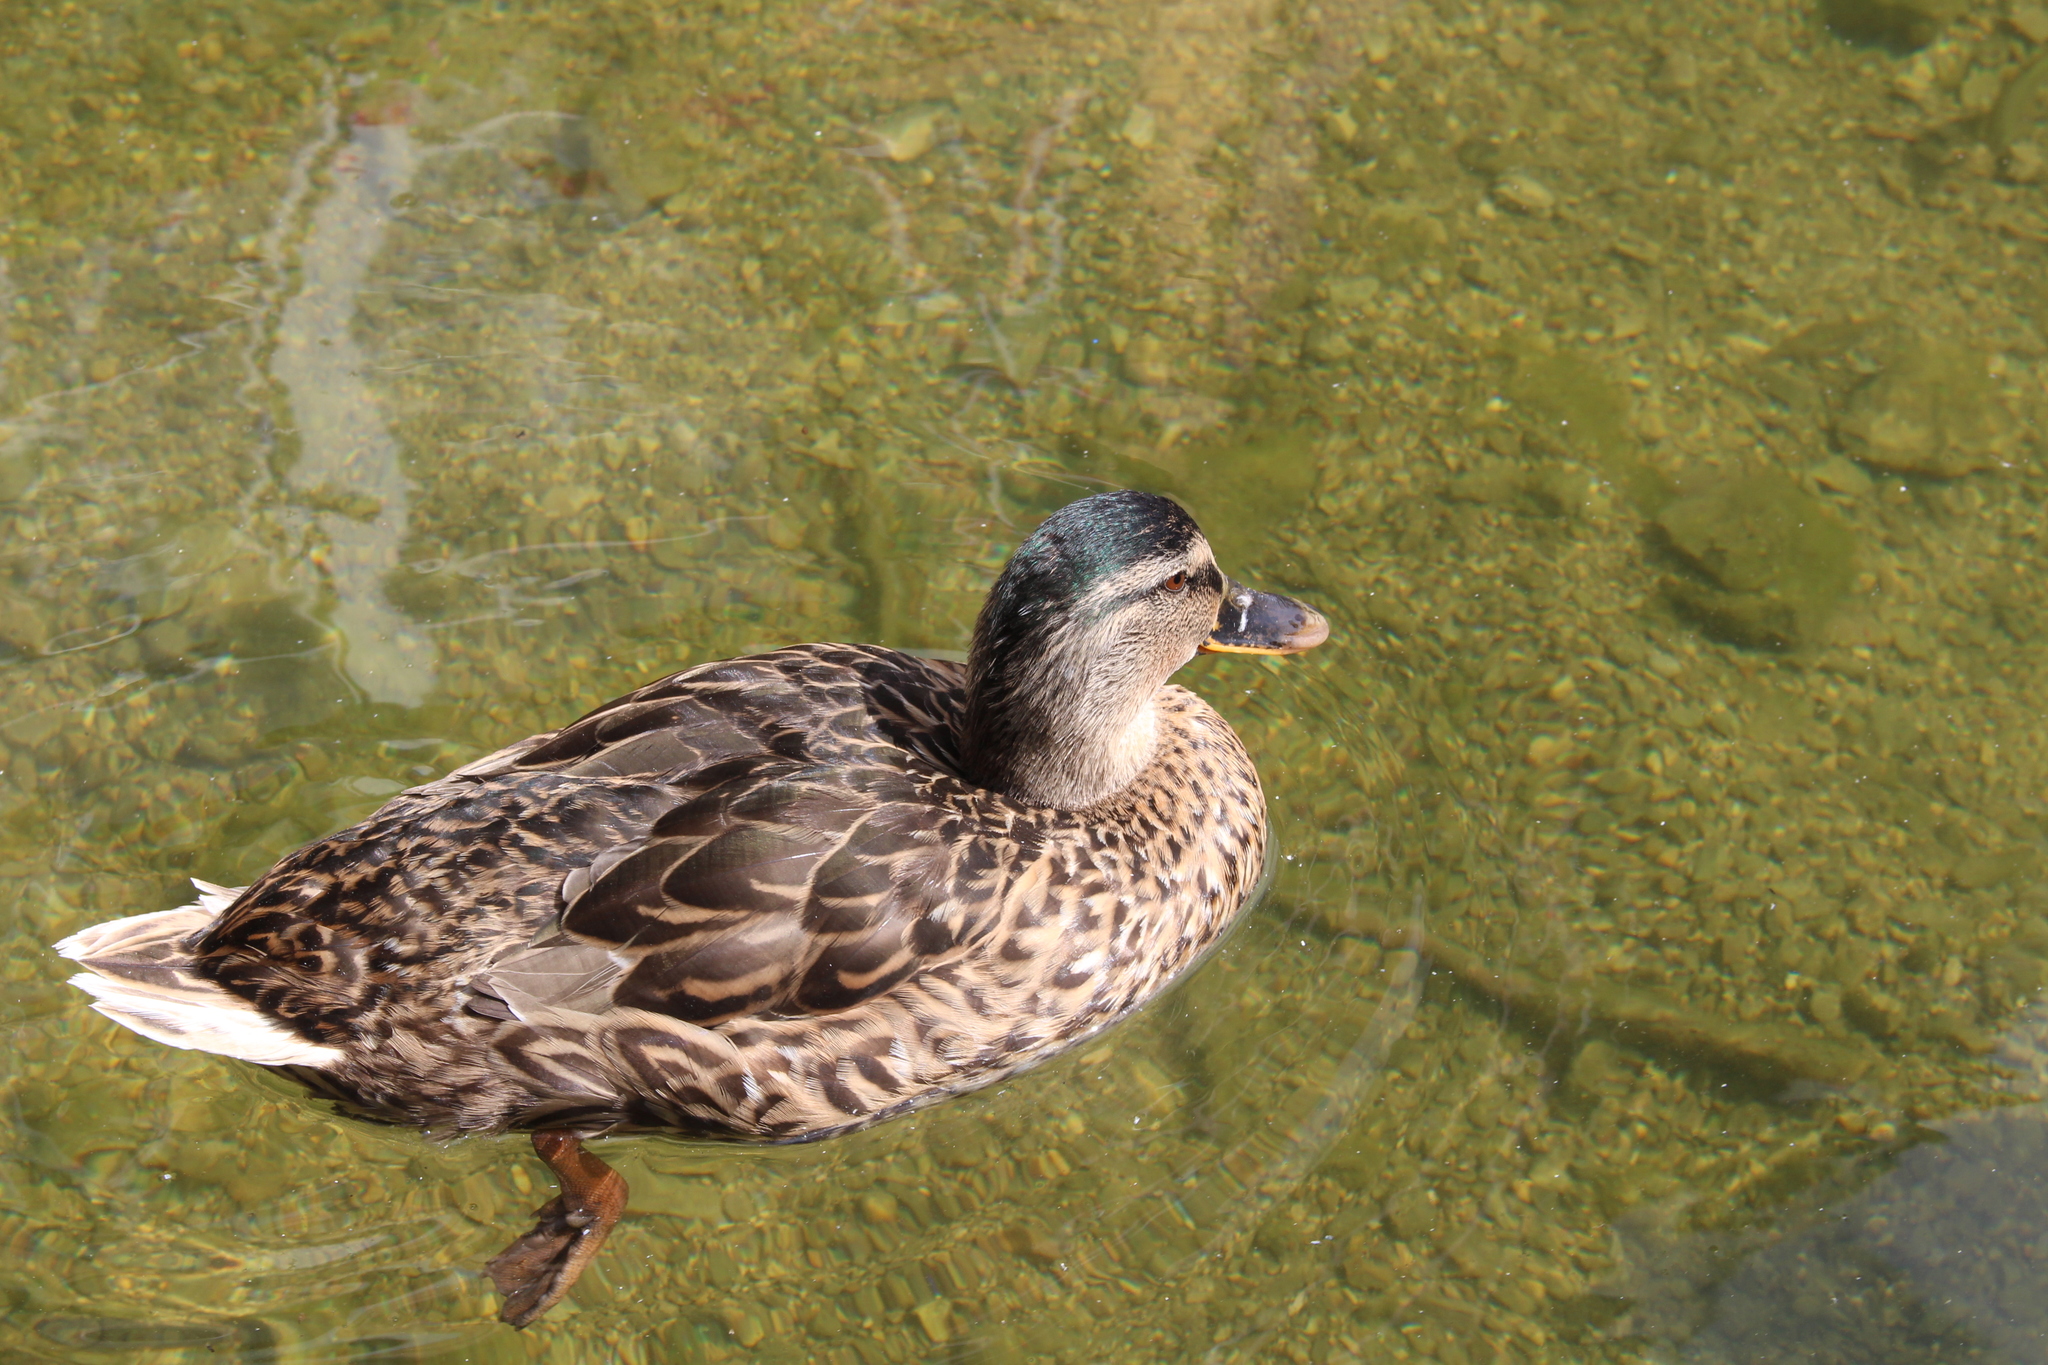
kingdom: Animalia
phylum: Chordata
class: Aves
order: Anseriformes
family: Anatidae
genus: Anas
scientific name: Anas platyrhynchos
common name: Mallard
